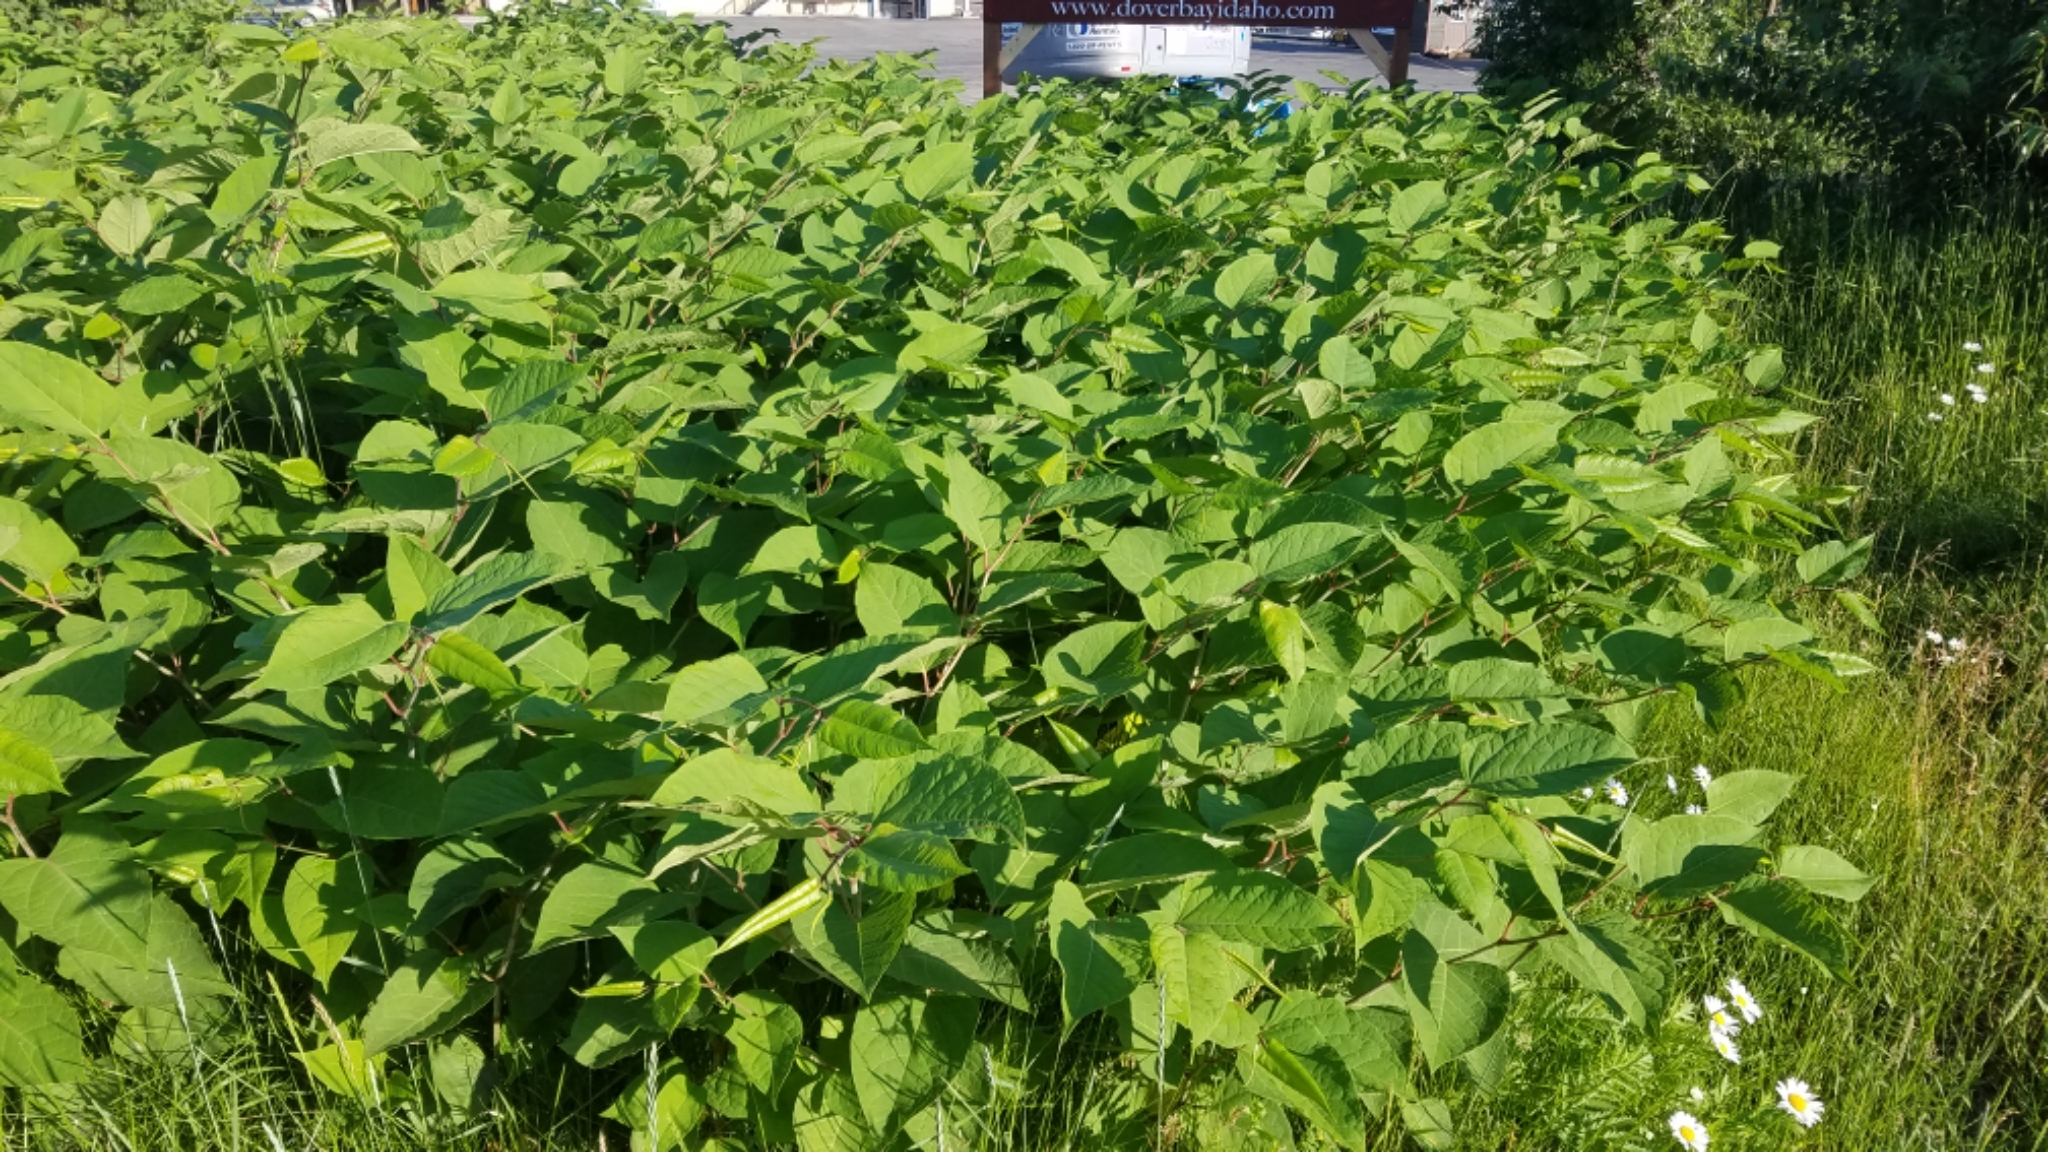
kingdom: Plantae
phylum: Tracheophyta
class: Magnoliopsida
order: Caryophyllales
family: Polygonaceae
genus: Reynoutria
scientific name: Reynoutria japonica
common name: Japanese knotweed
